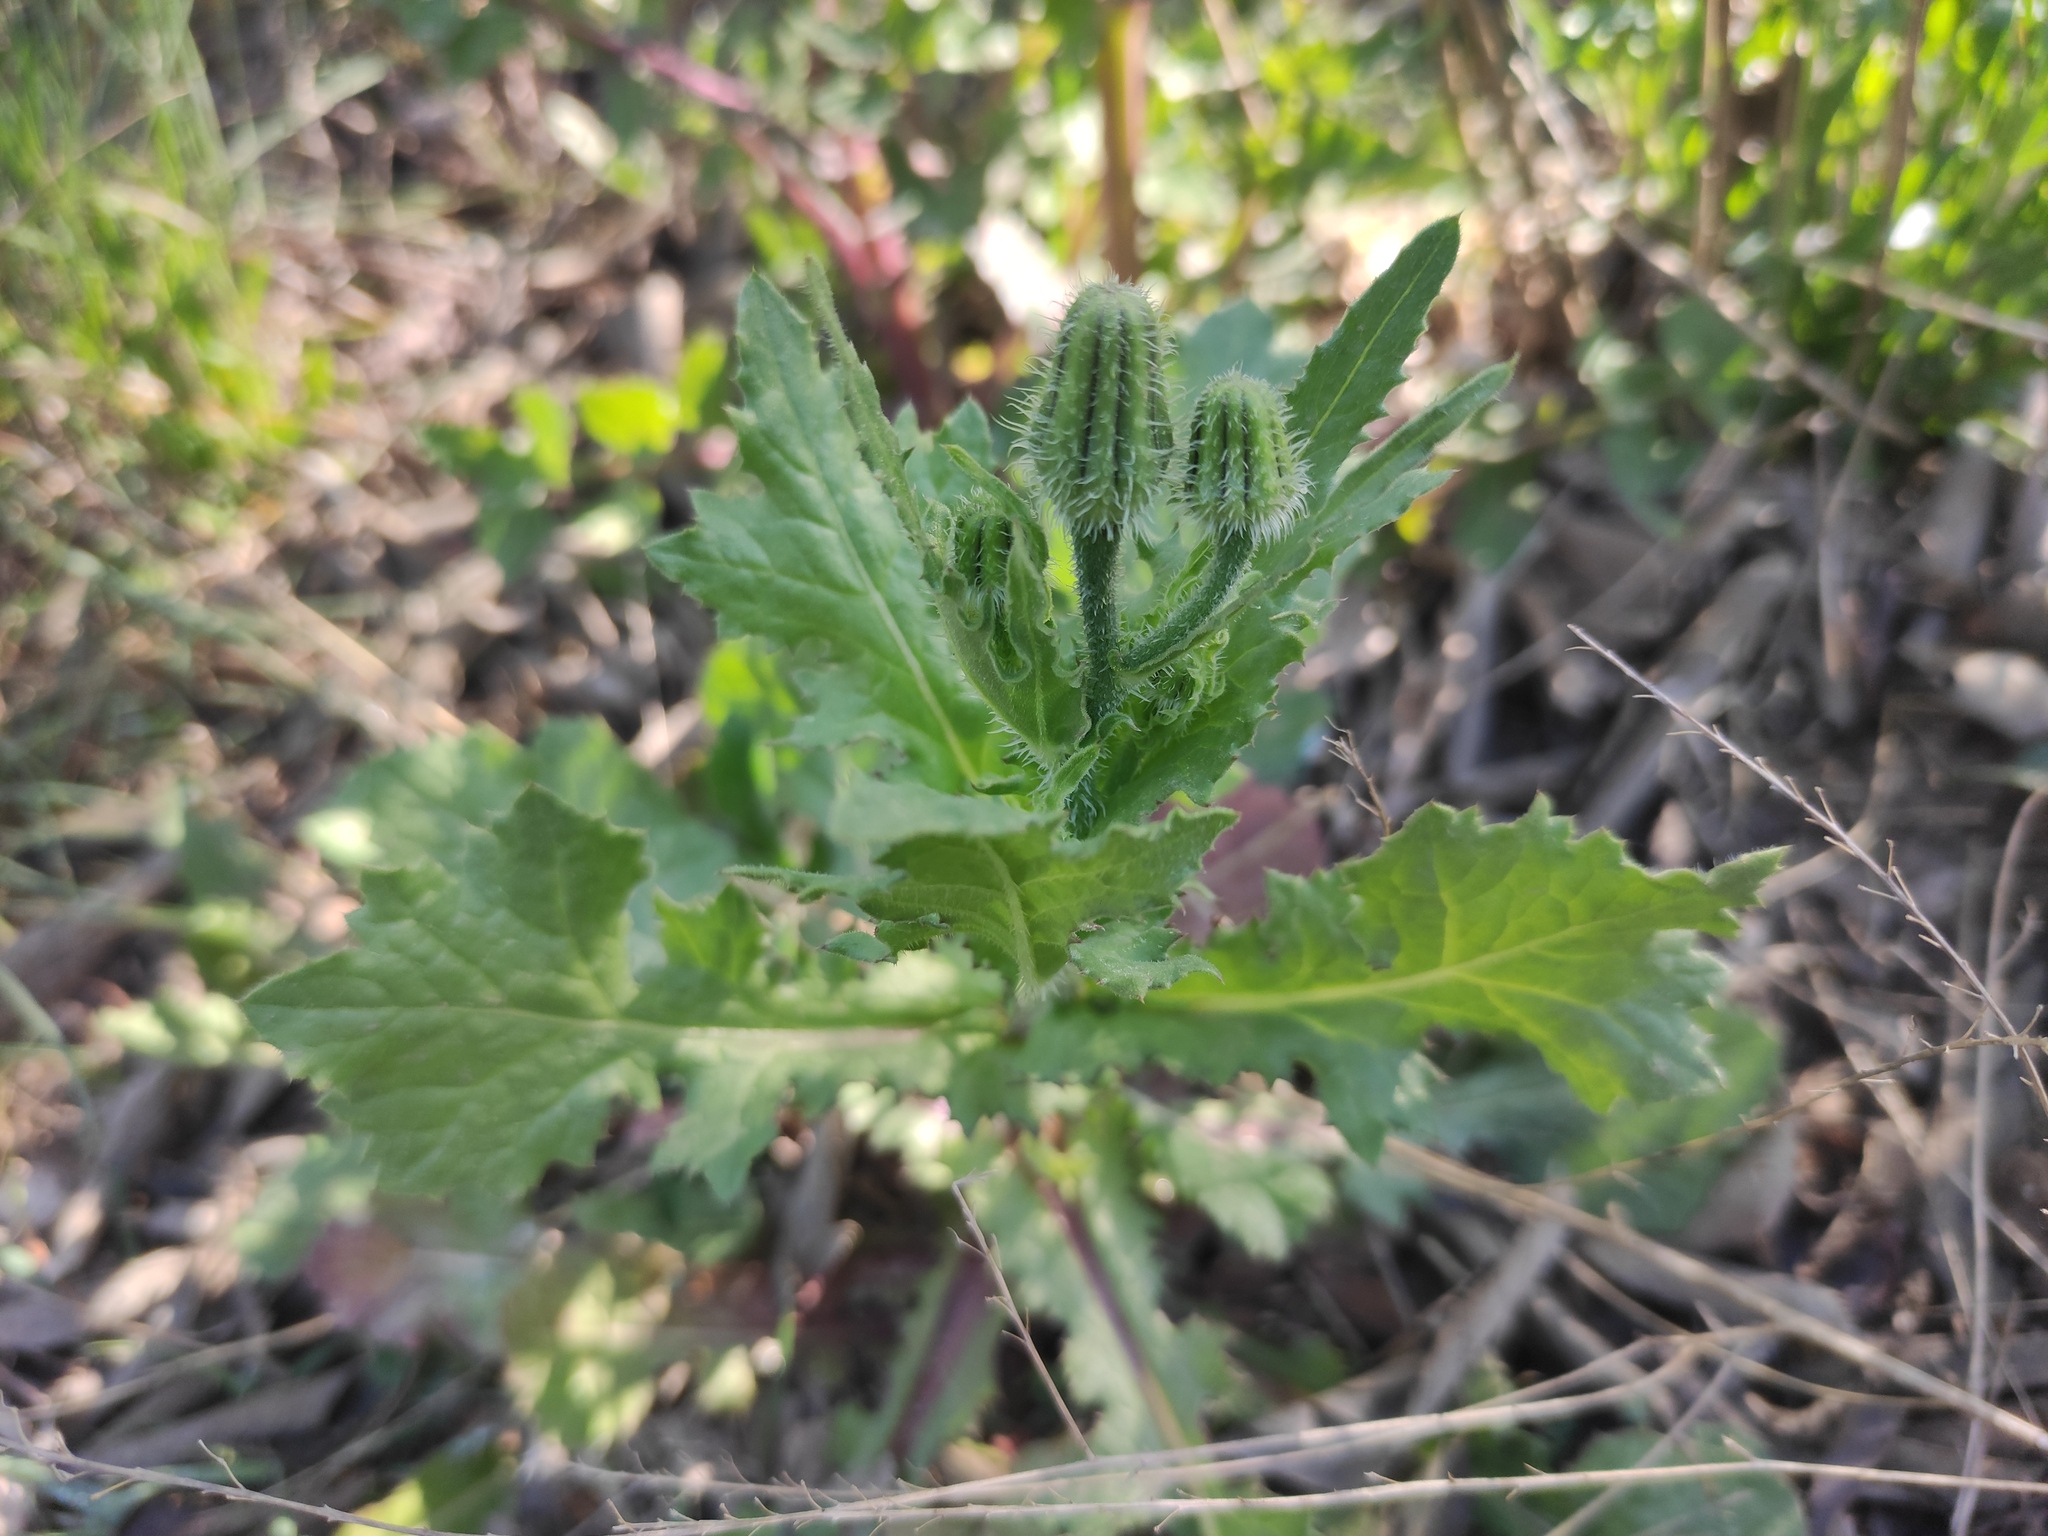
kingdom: Plantae
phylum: Tracheophyta
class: Magnoliopsida
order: Asterales
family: Asteraceae
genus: Urospermum
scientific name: Urospermum picroides
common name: False hawkbit
